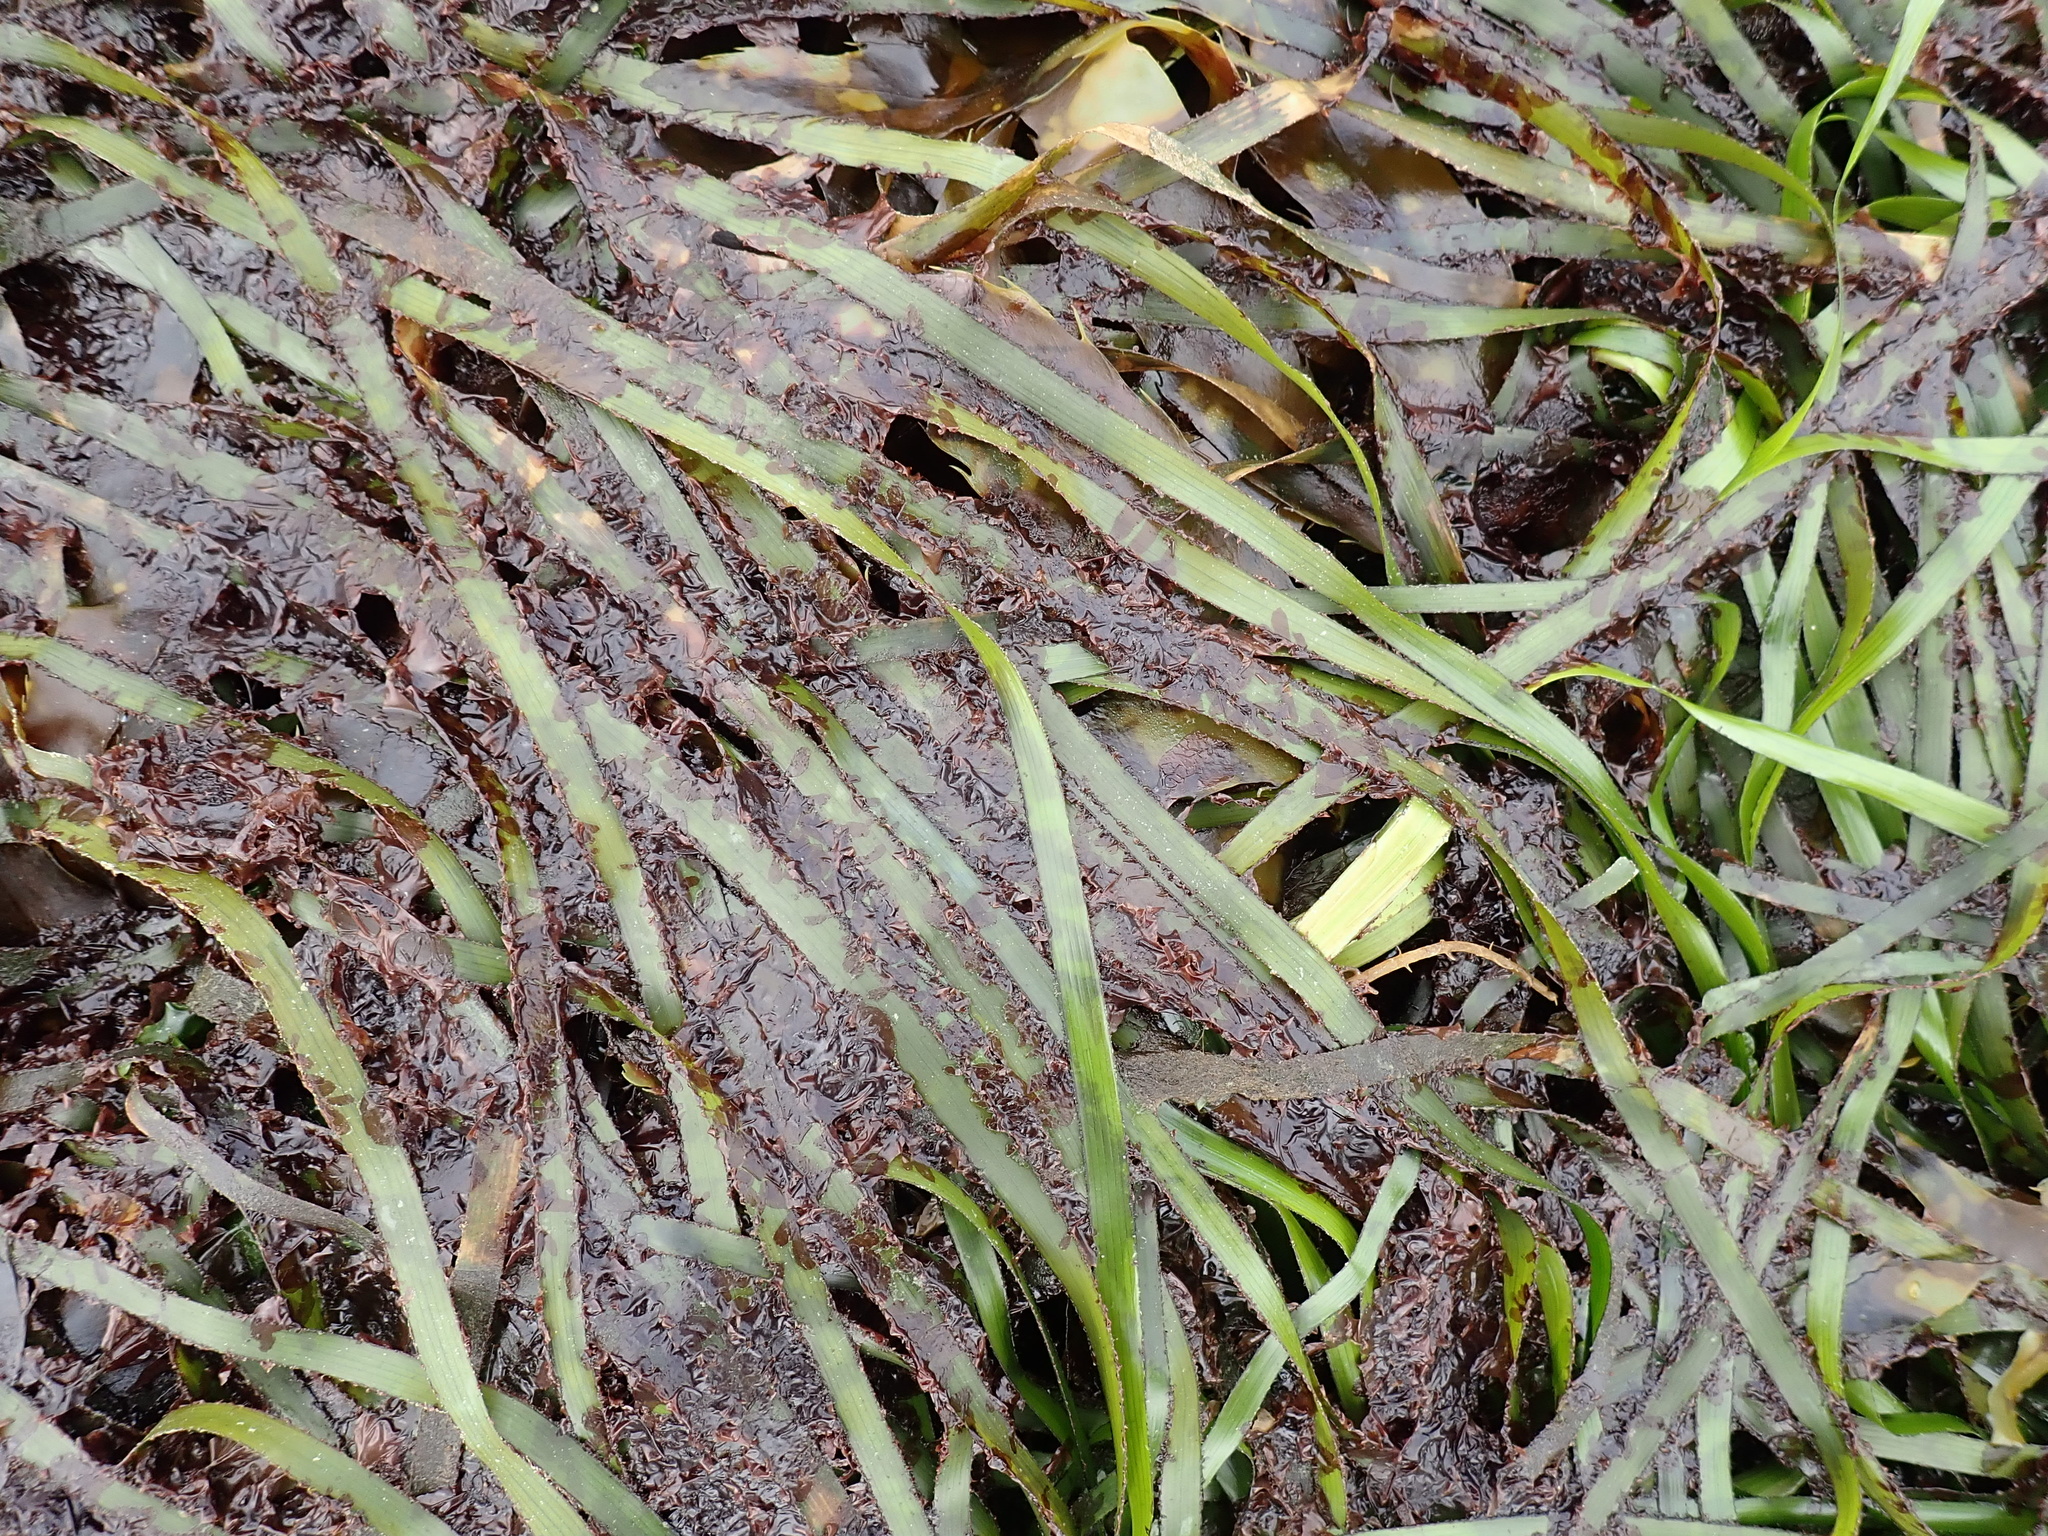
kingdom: Plantae
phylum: Rhodophyta
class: Compsopogonophyceae
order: Erythropeltidales
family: Erythrotrichiaceae
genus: Smithora
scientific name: Smithora naiadum
